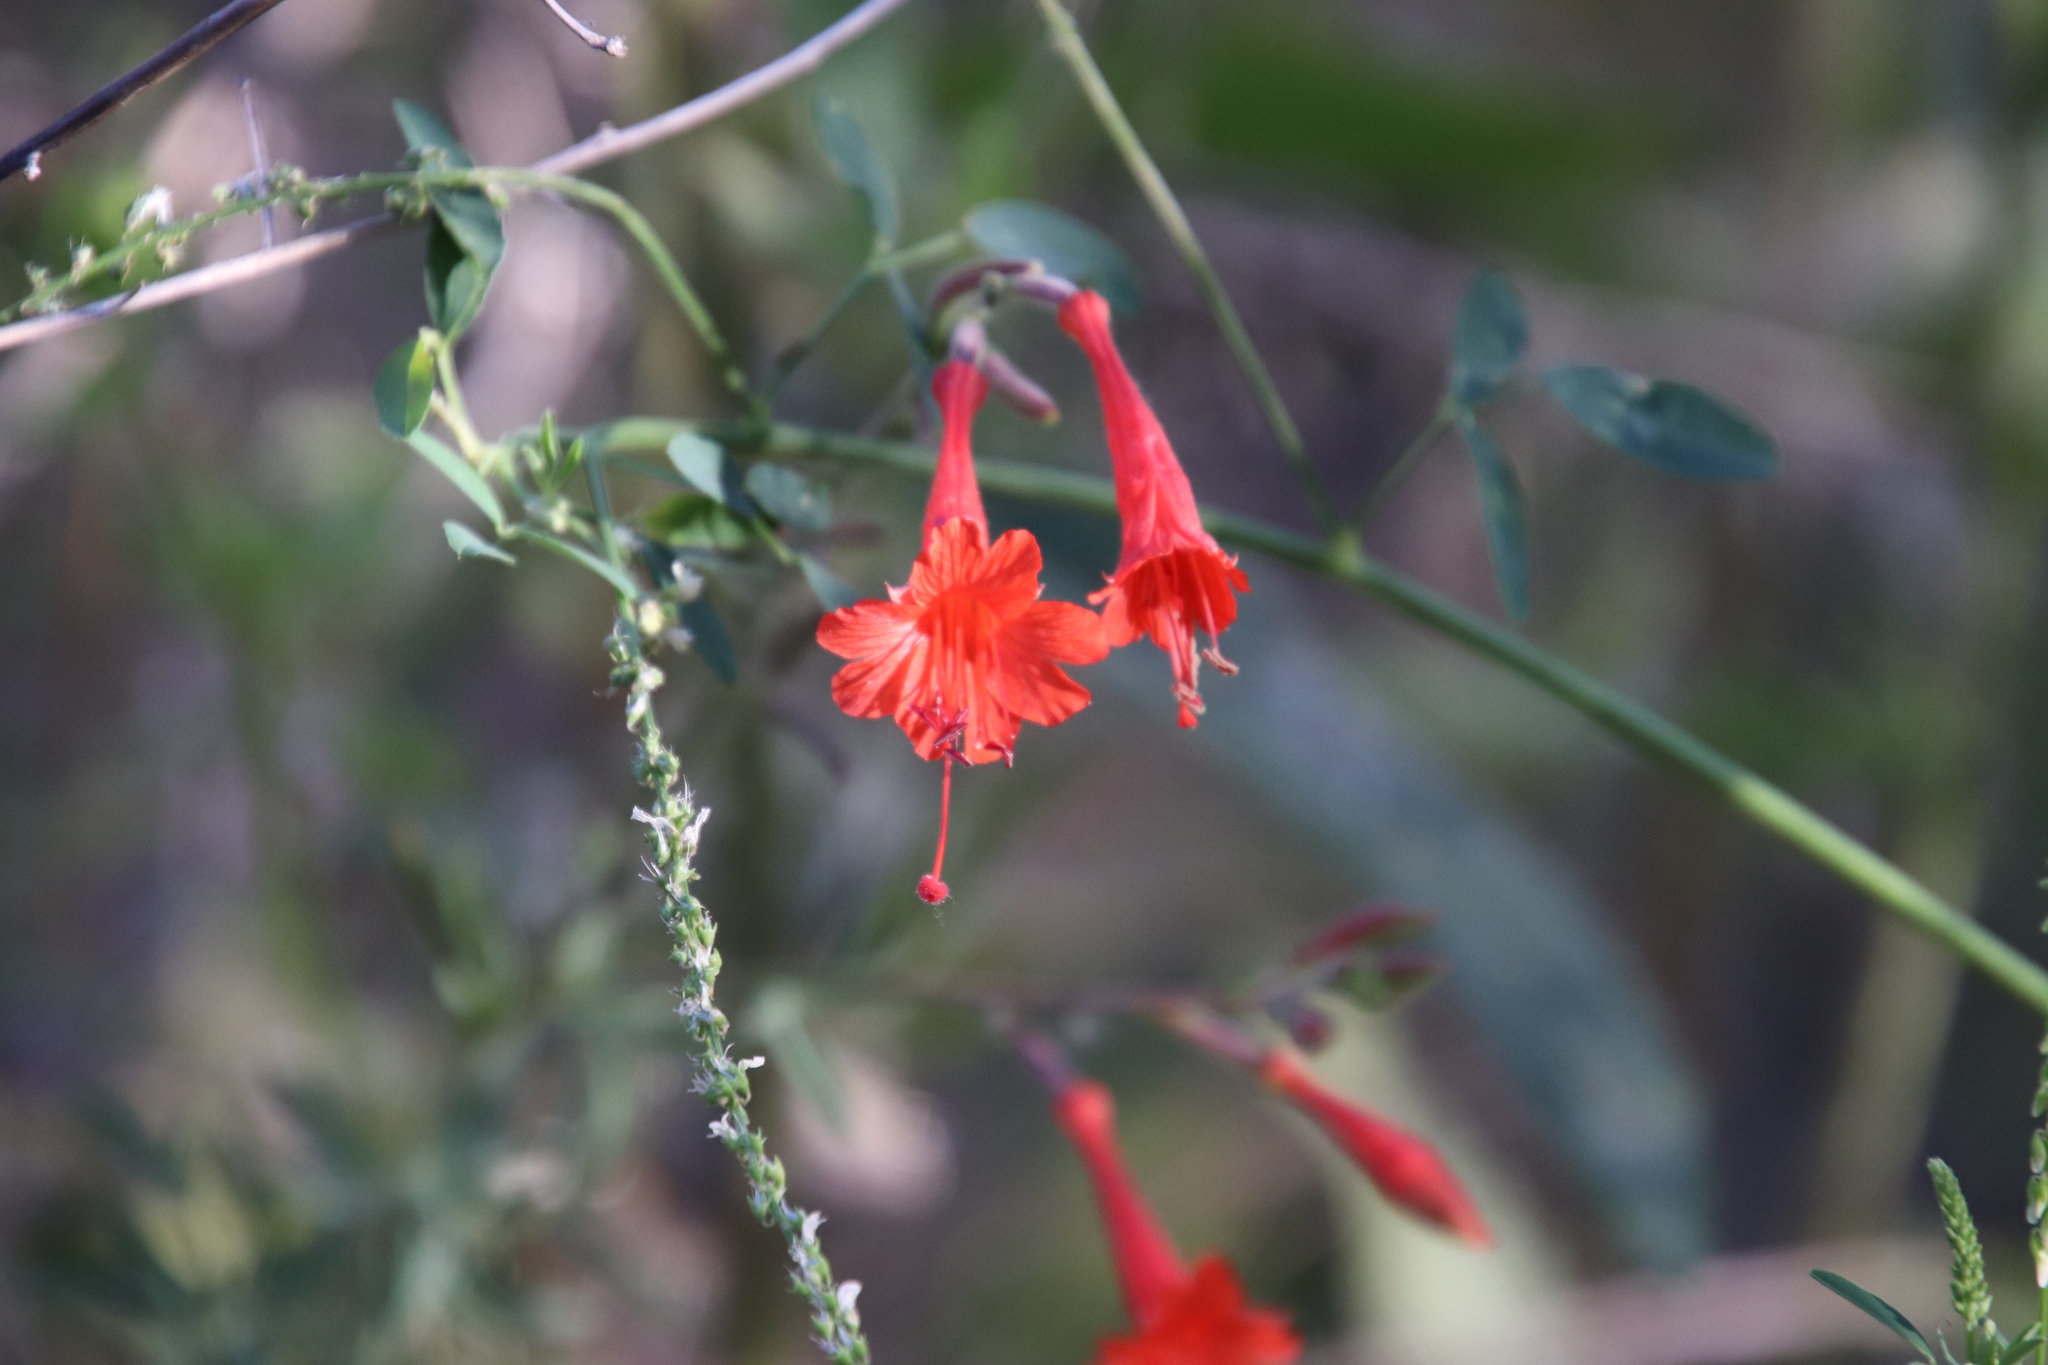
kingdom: Plantae
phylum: Tracheophyta
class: Magnoliopsida
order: Myrtales
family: Onagraceae
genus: Epilobium
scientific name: Epilobium canum
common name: California-fuchsia
